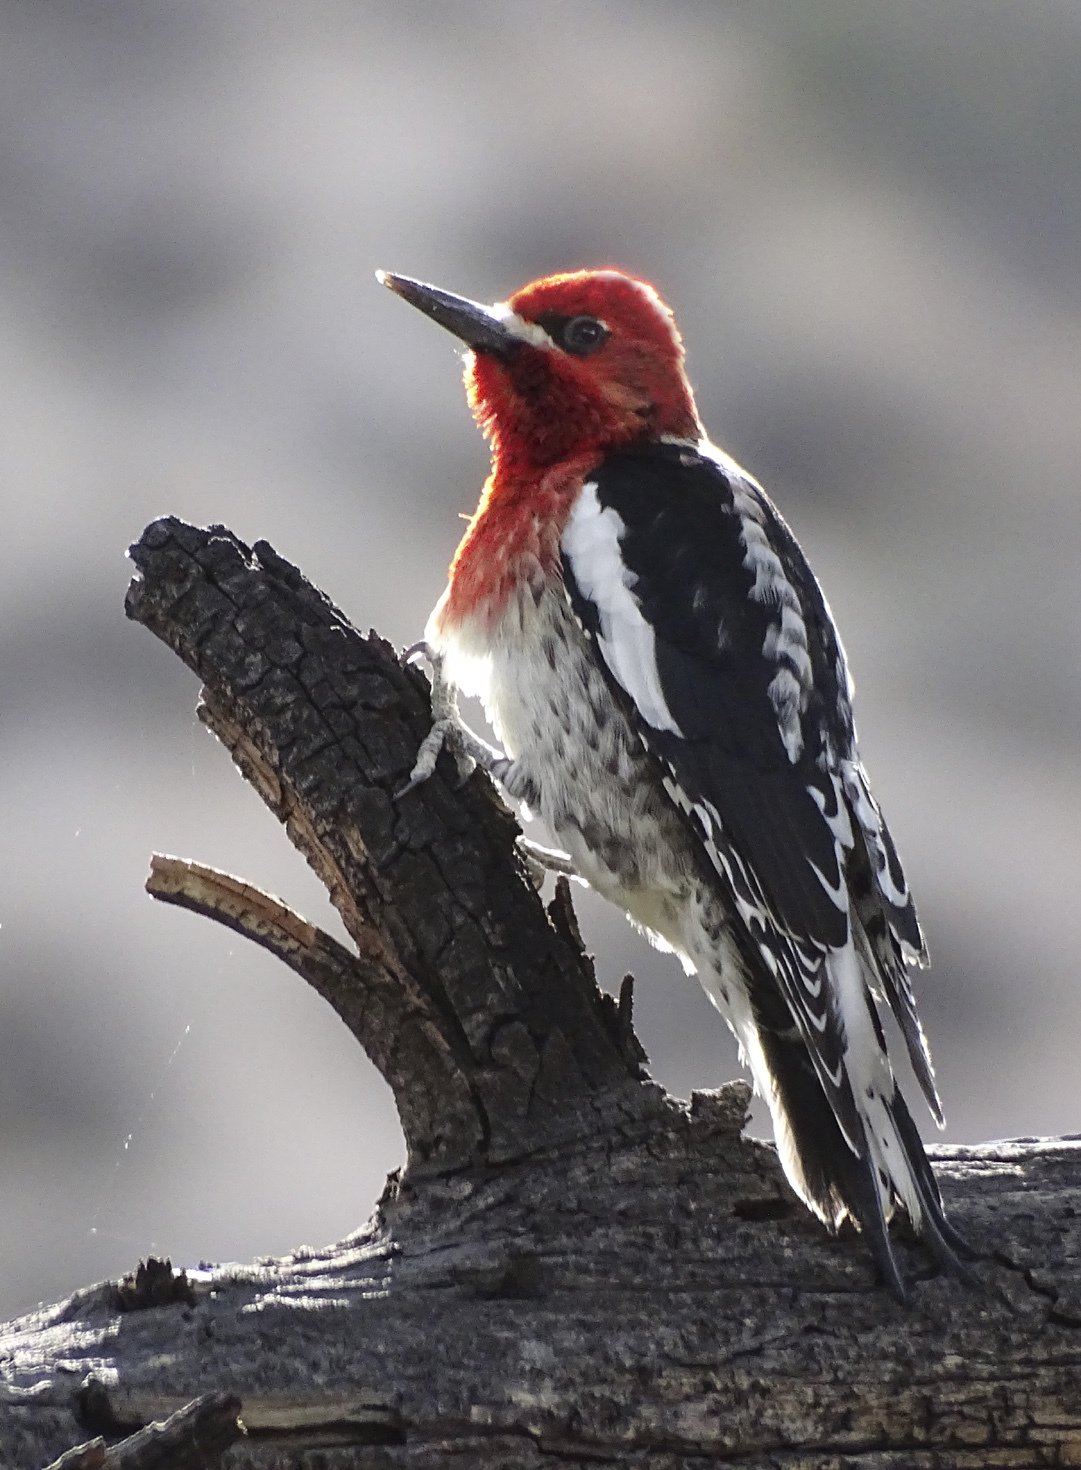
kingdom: Animalia
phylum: Chordata
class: Aves
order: Piciformes
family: Picidae
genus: Sphyrapicus
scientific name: Sphyrapicus ruber
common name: Red-breasted sapsucker
